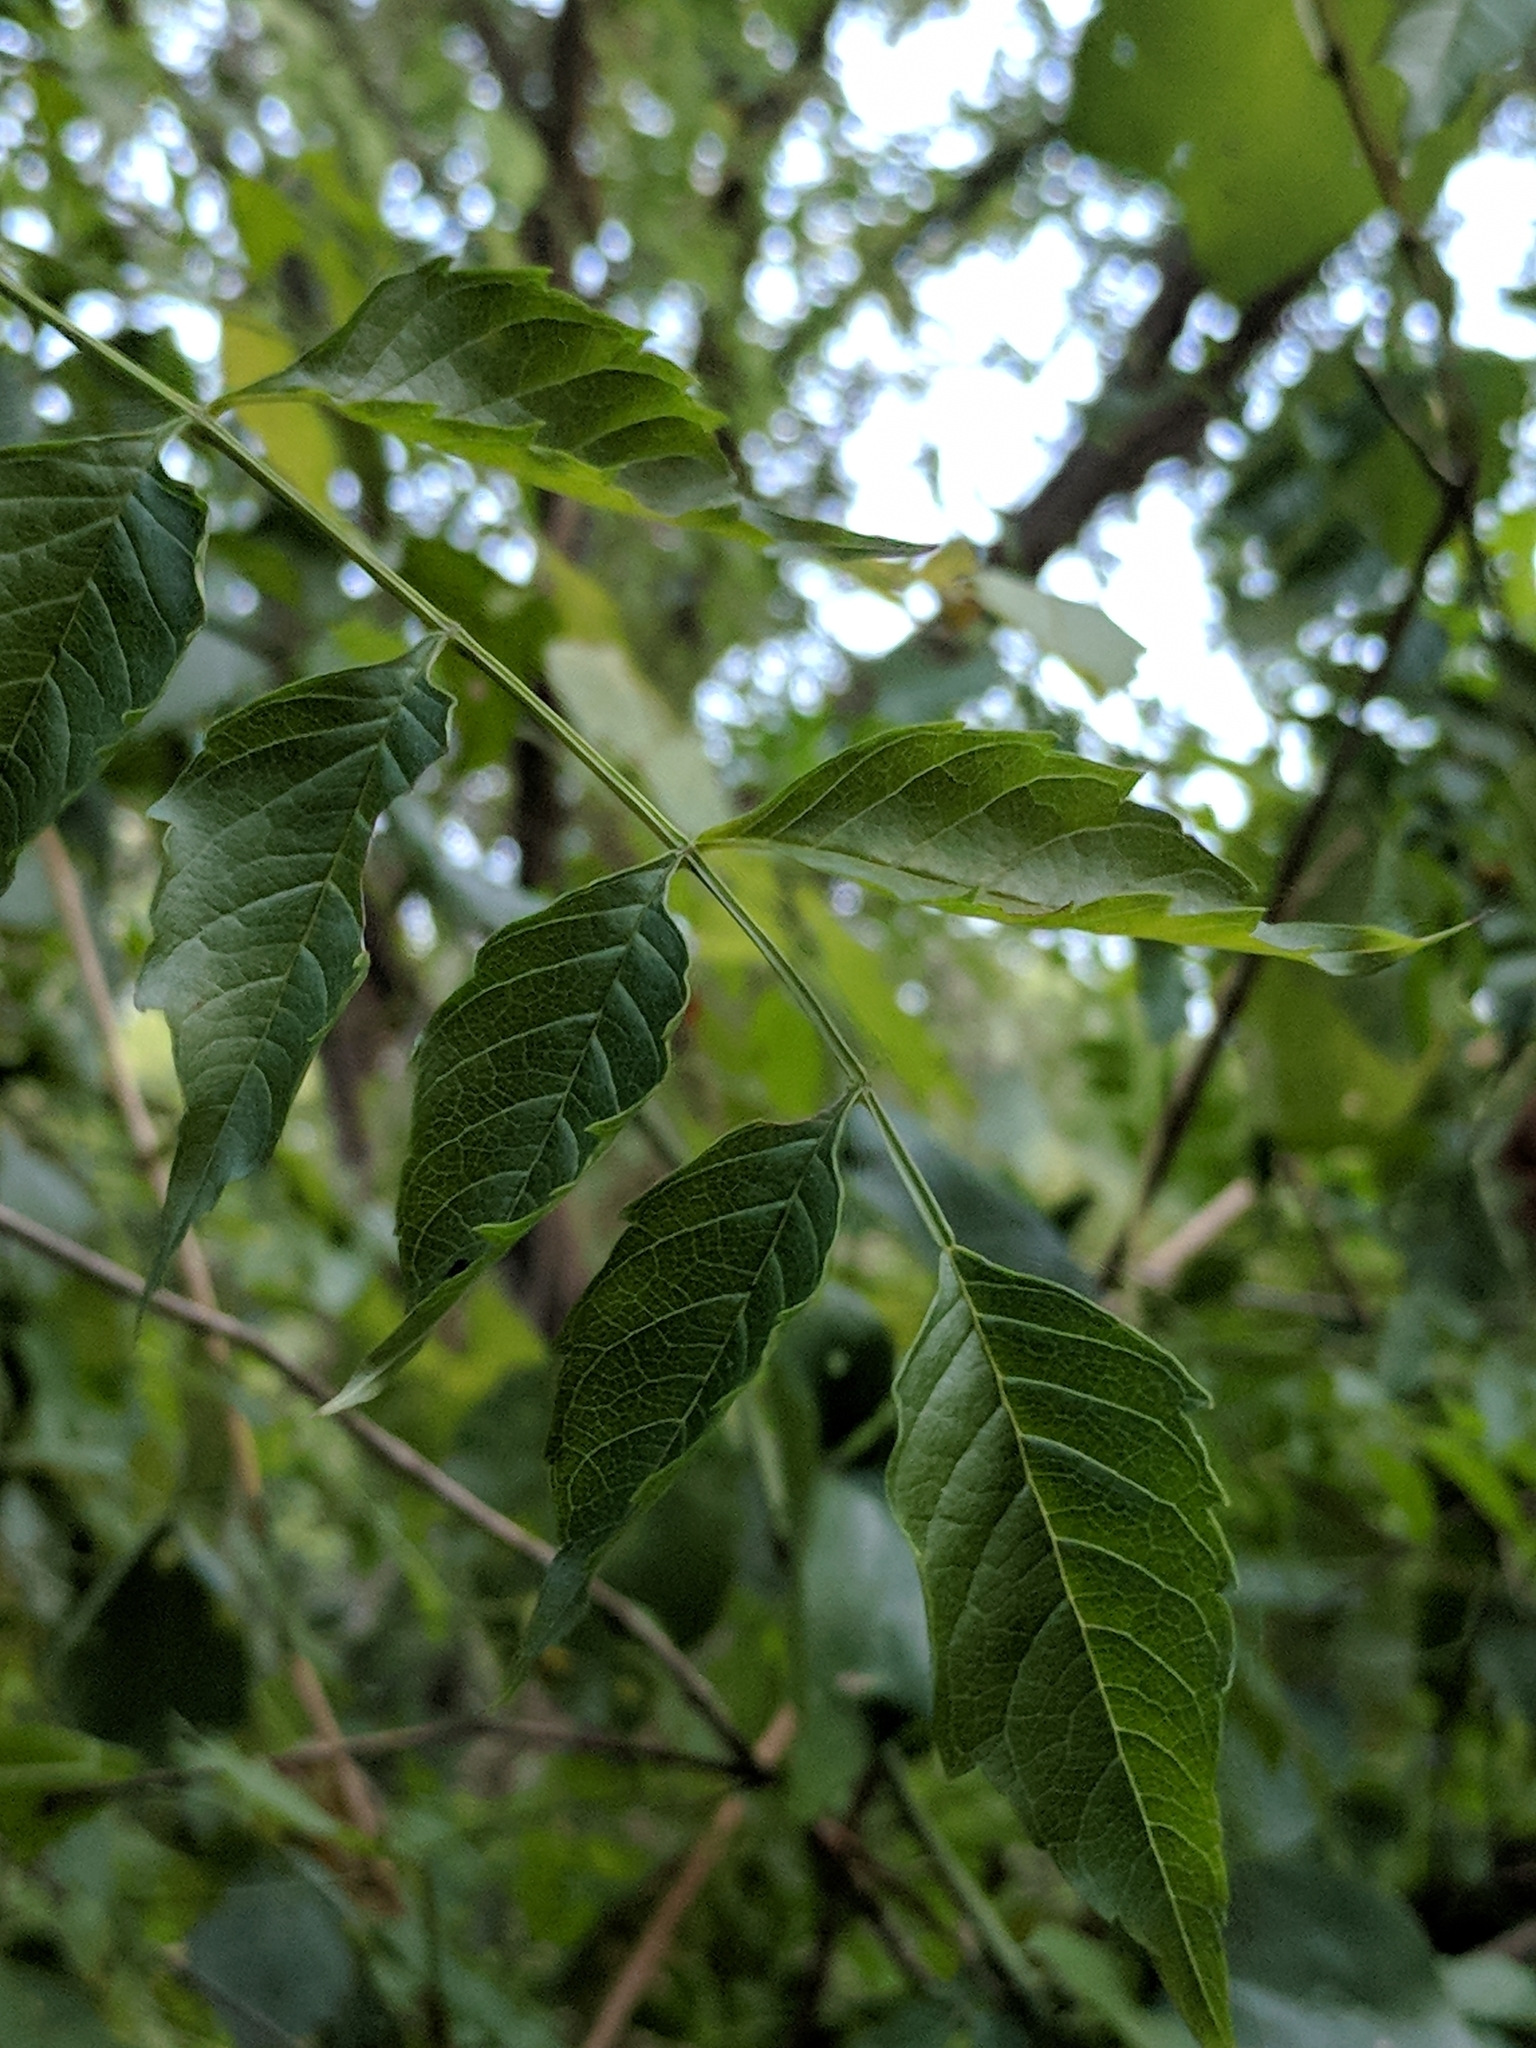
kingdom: Plantae
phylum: Tracheophyta
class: Magnoliopsida
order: Lamiales
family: Bignoniaceae
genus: Campsis
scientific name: Campsis radicans
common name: Trumpet-creeper
